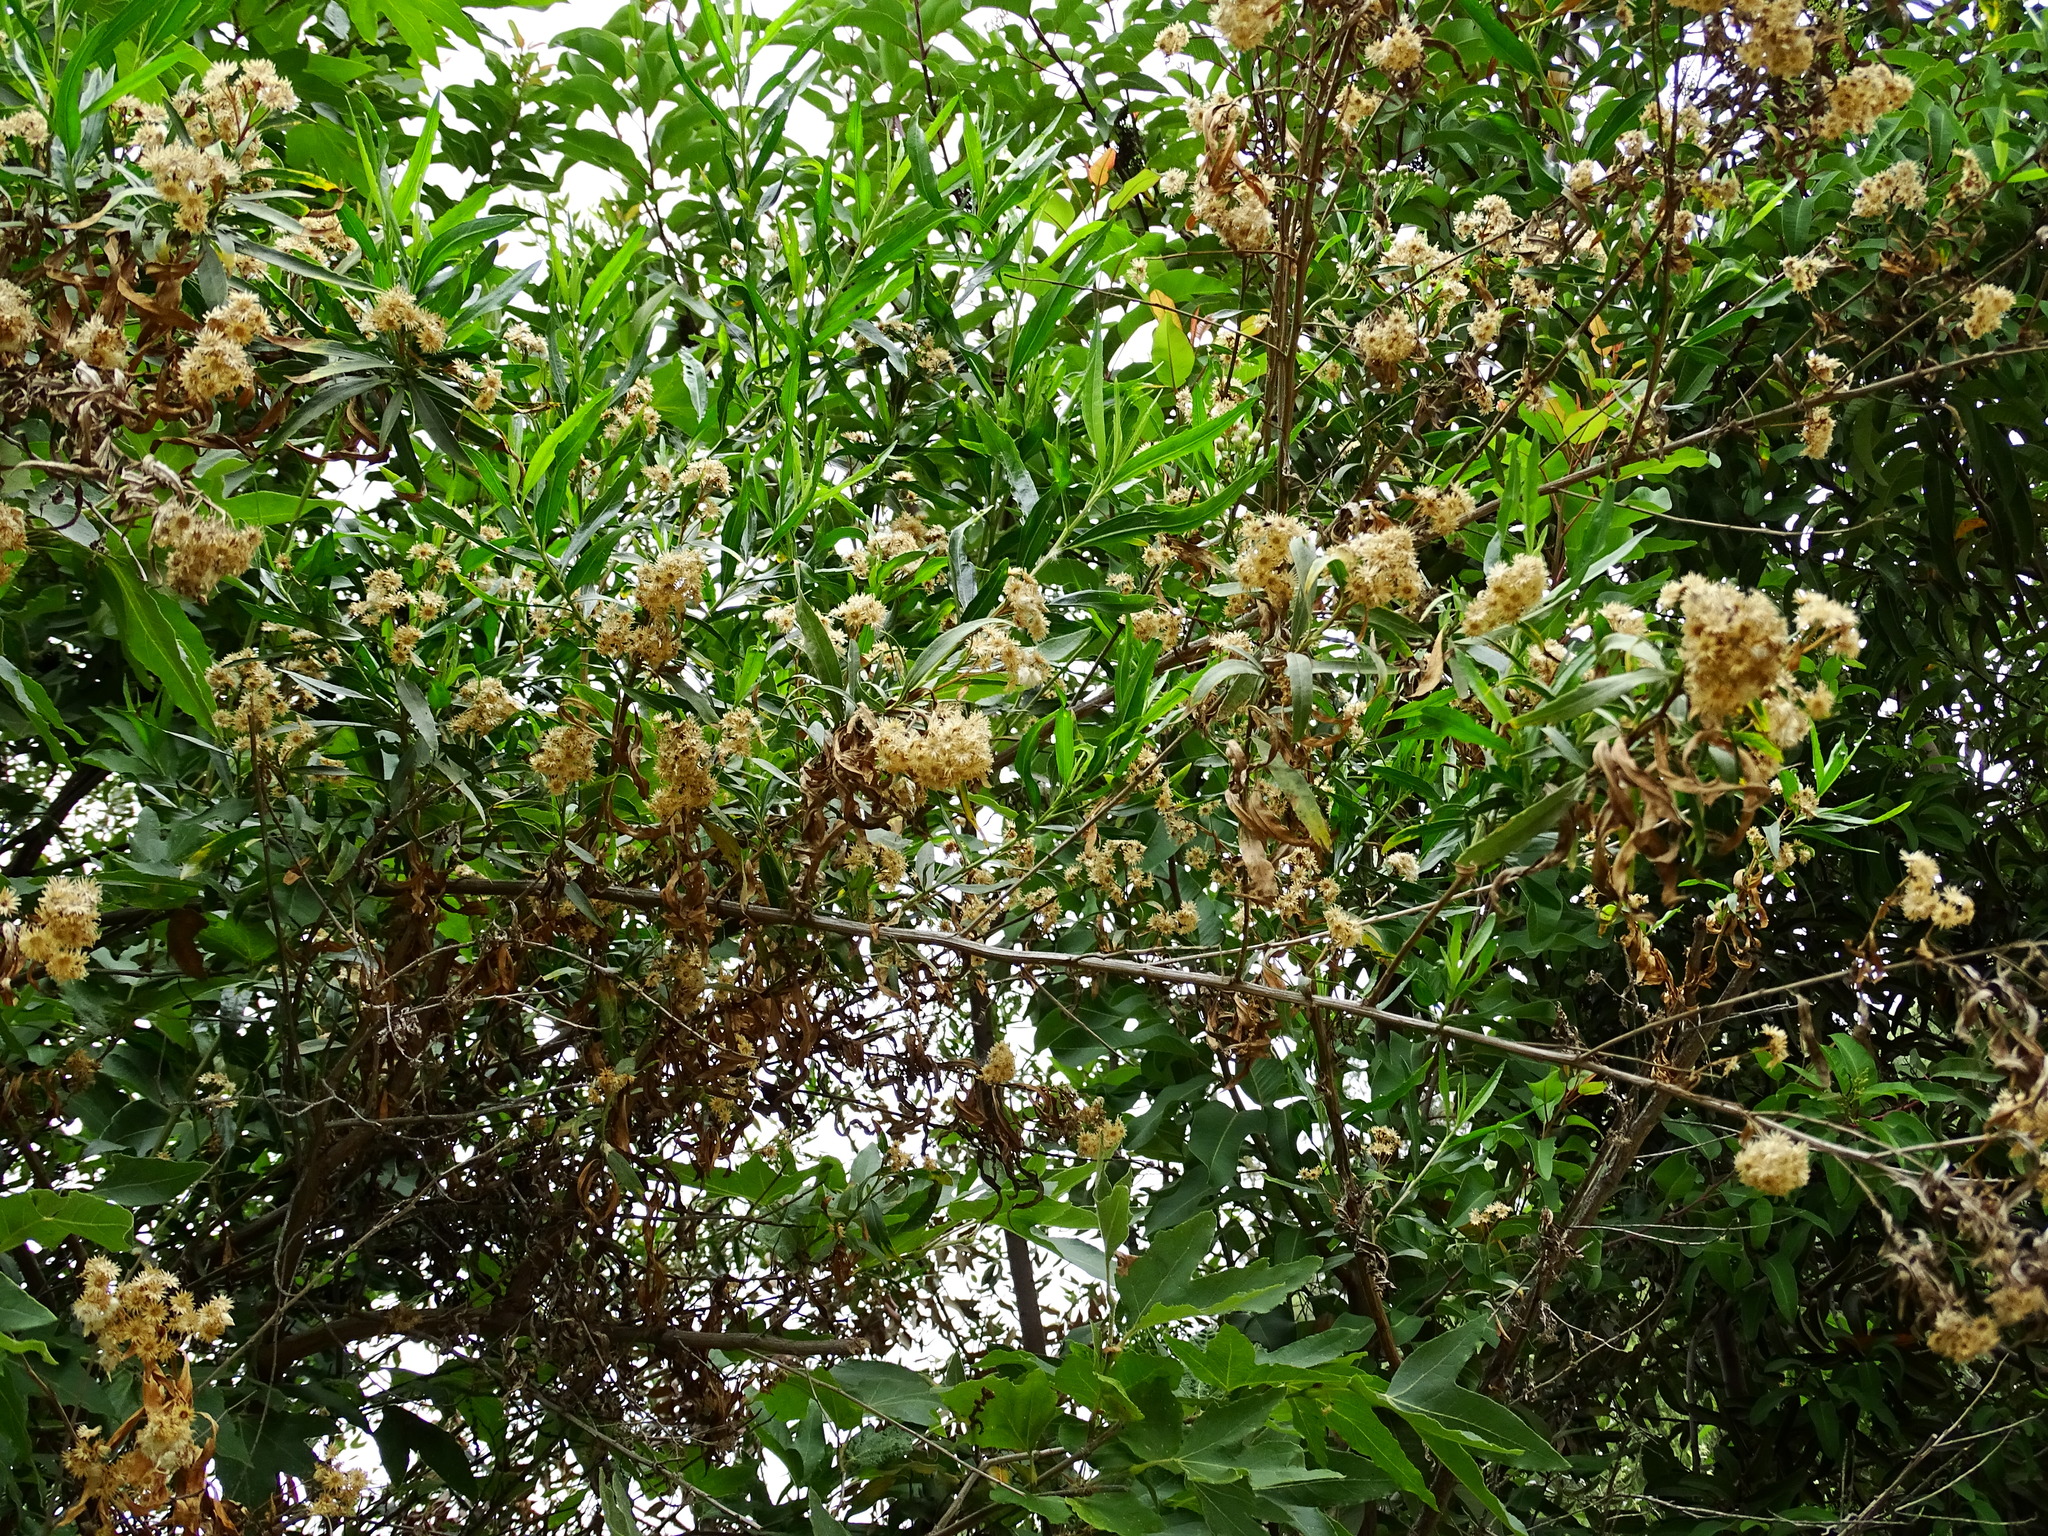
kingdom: Plantae
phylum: Tracheophyta
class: Magnoliopsida
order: Asterales
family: Asteraceae
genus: Baccharis
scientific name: Baccharis salicifolia
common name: Sticky baccharis
